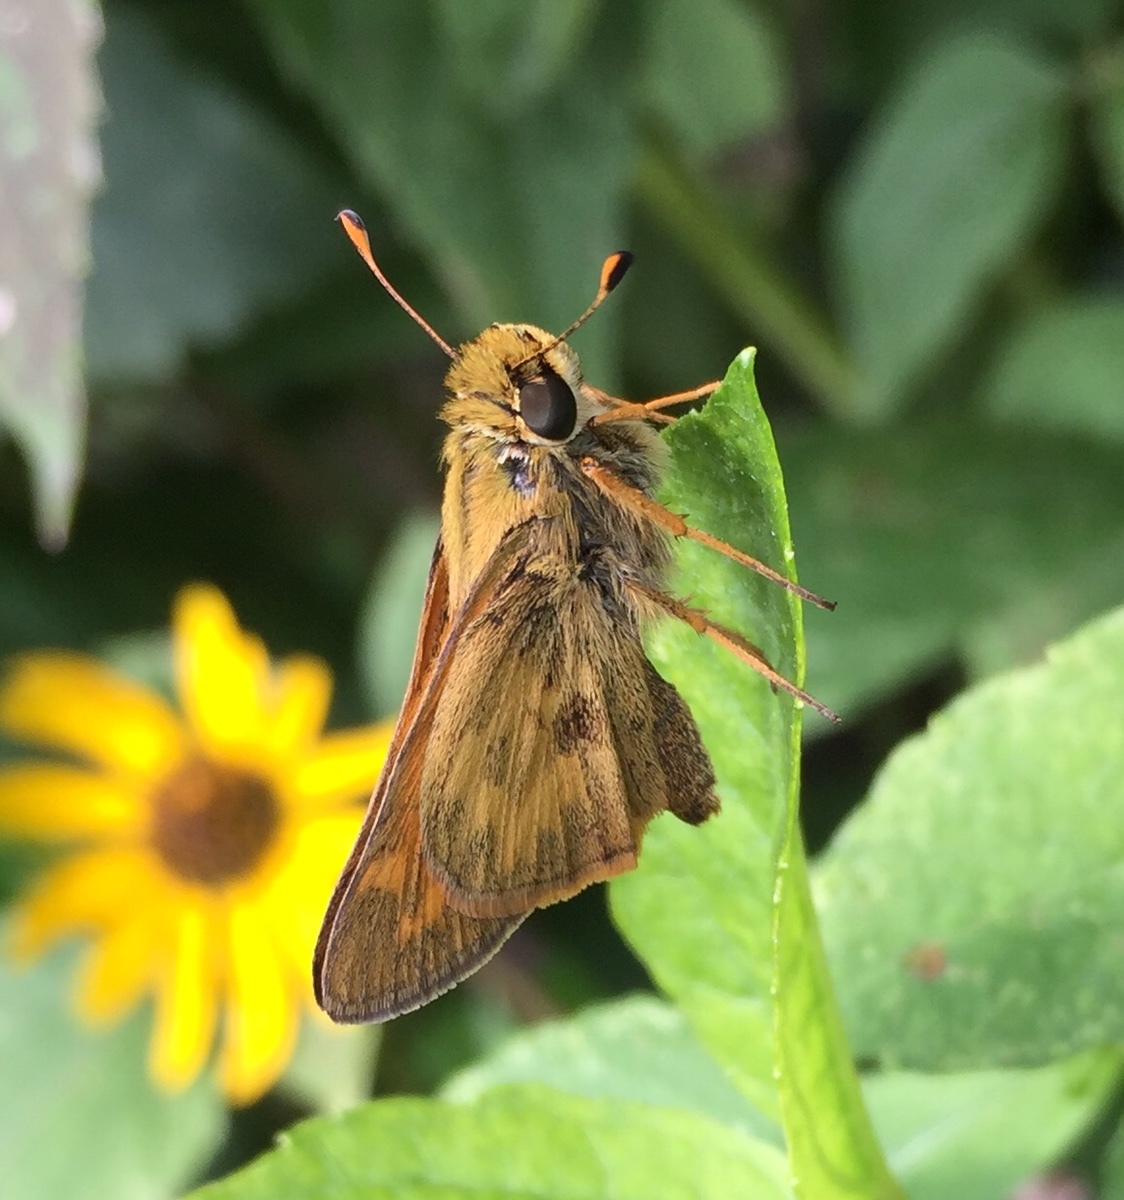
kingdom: Animalia
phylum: Arthropoda
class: Insecta
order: Lepidoptera
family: Hesperiidae
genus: Atalopedes
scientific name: Atalopedes
